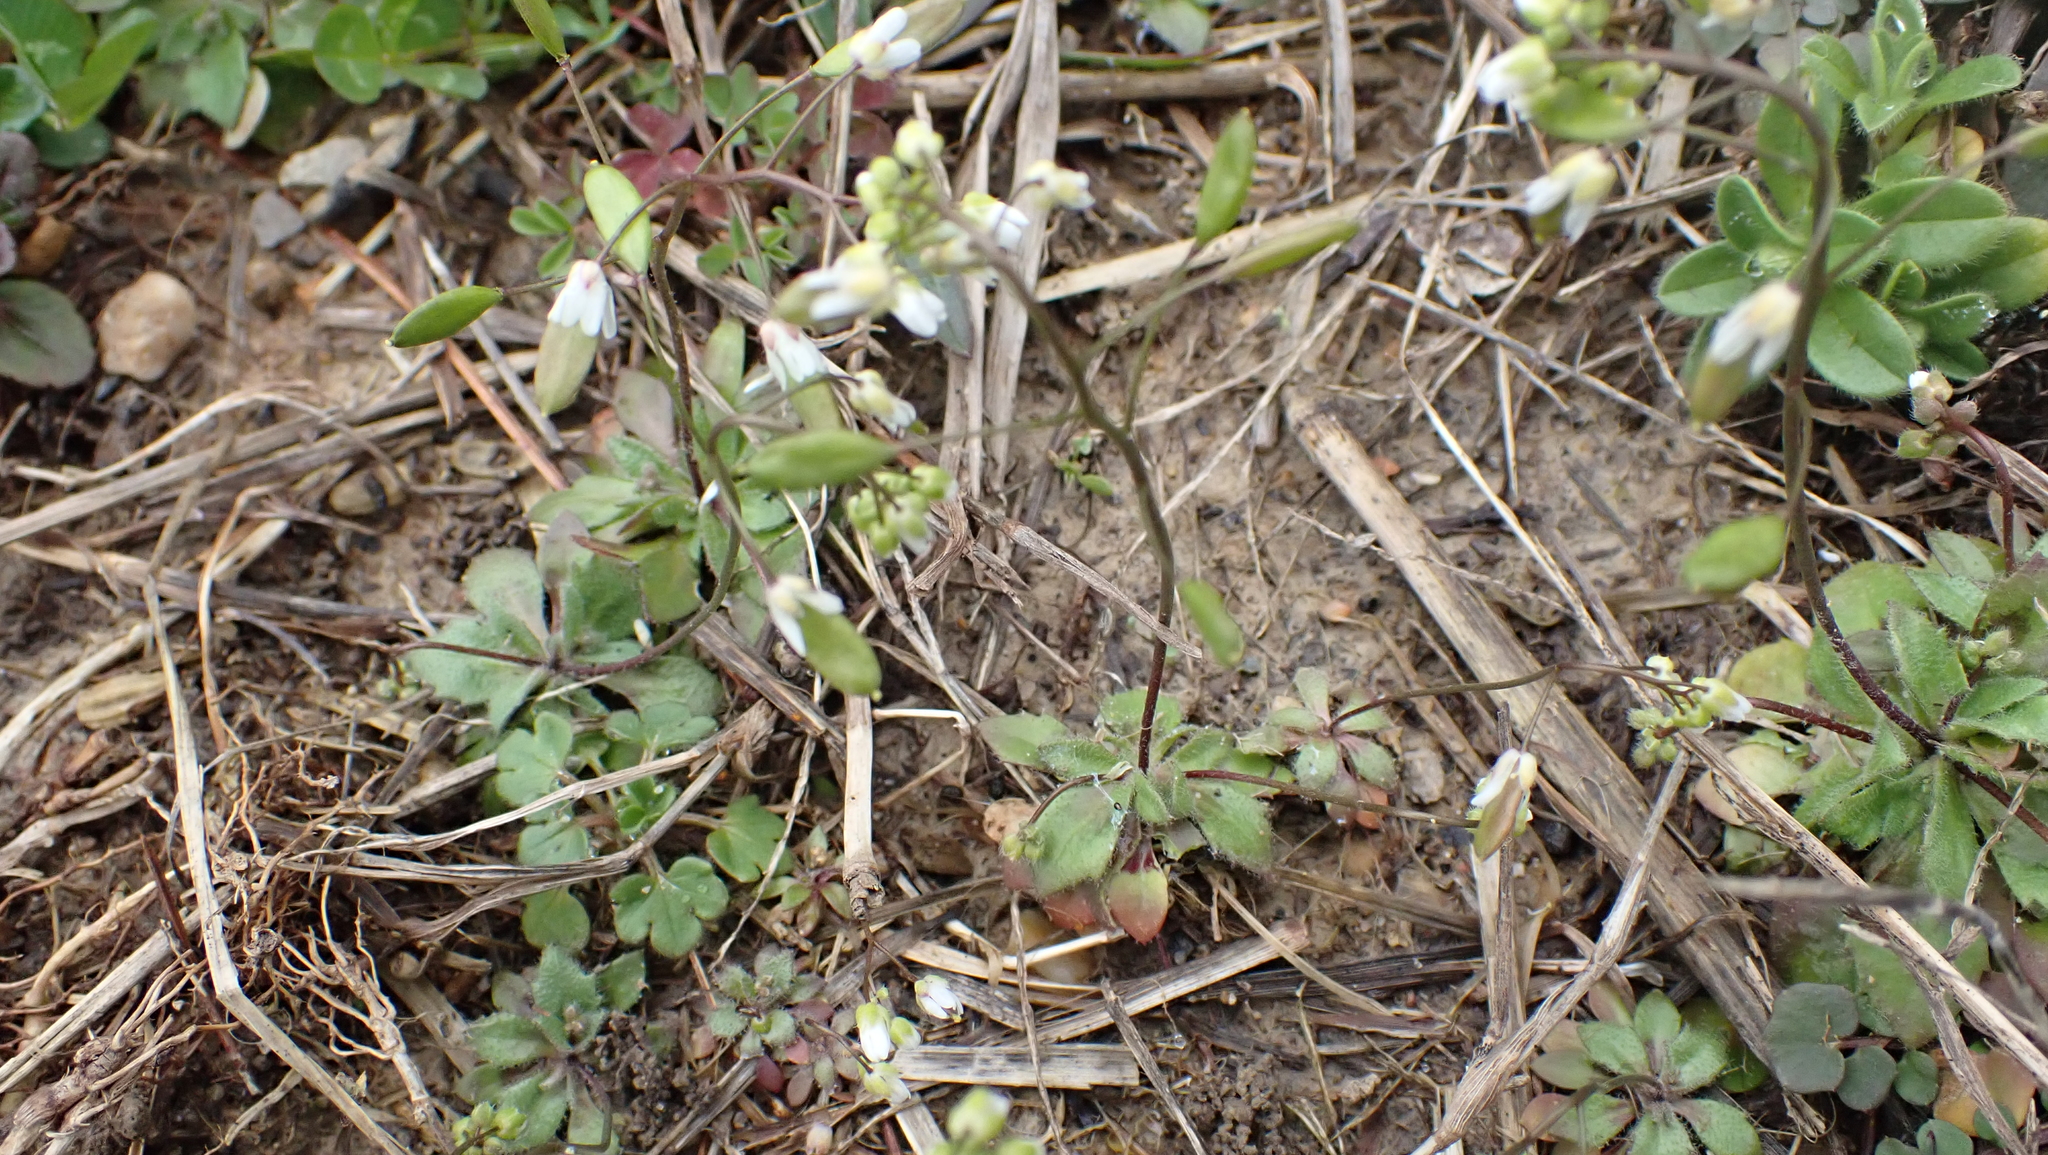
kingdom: Plantae
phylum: Tracheophyta
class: Magnoliopsida
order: Brassicales
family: Brassicaceae
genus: Draba
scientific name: Draba verna
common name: Spring draba
